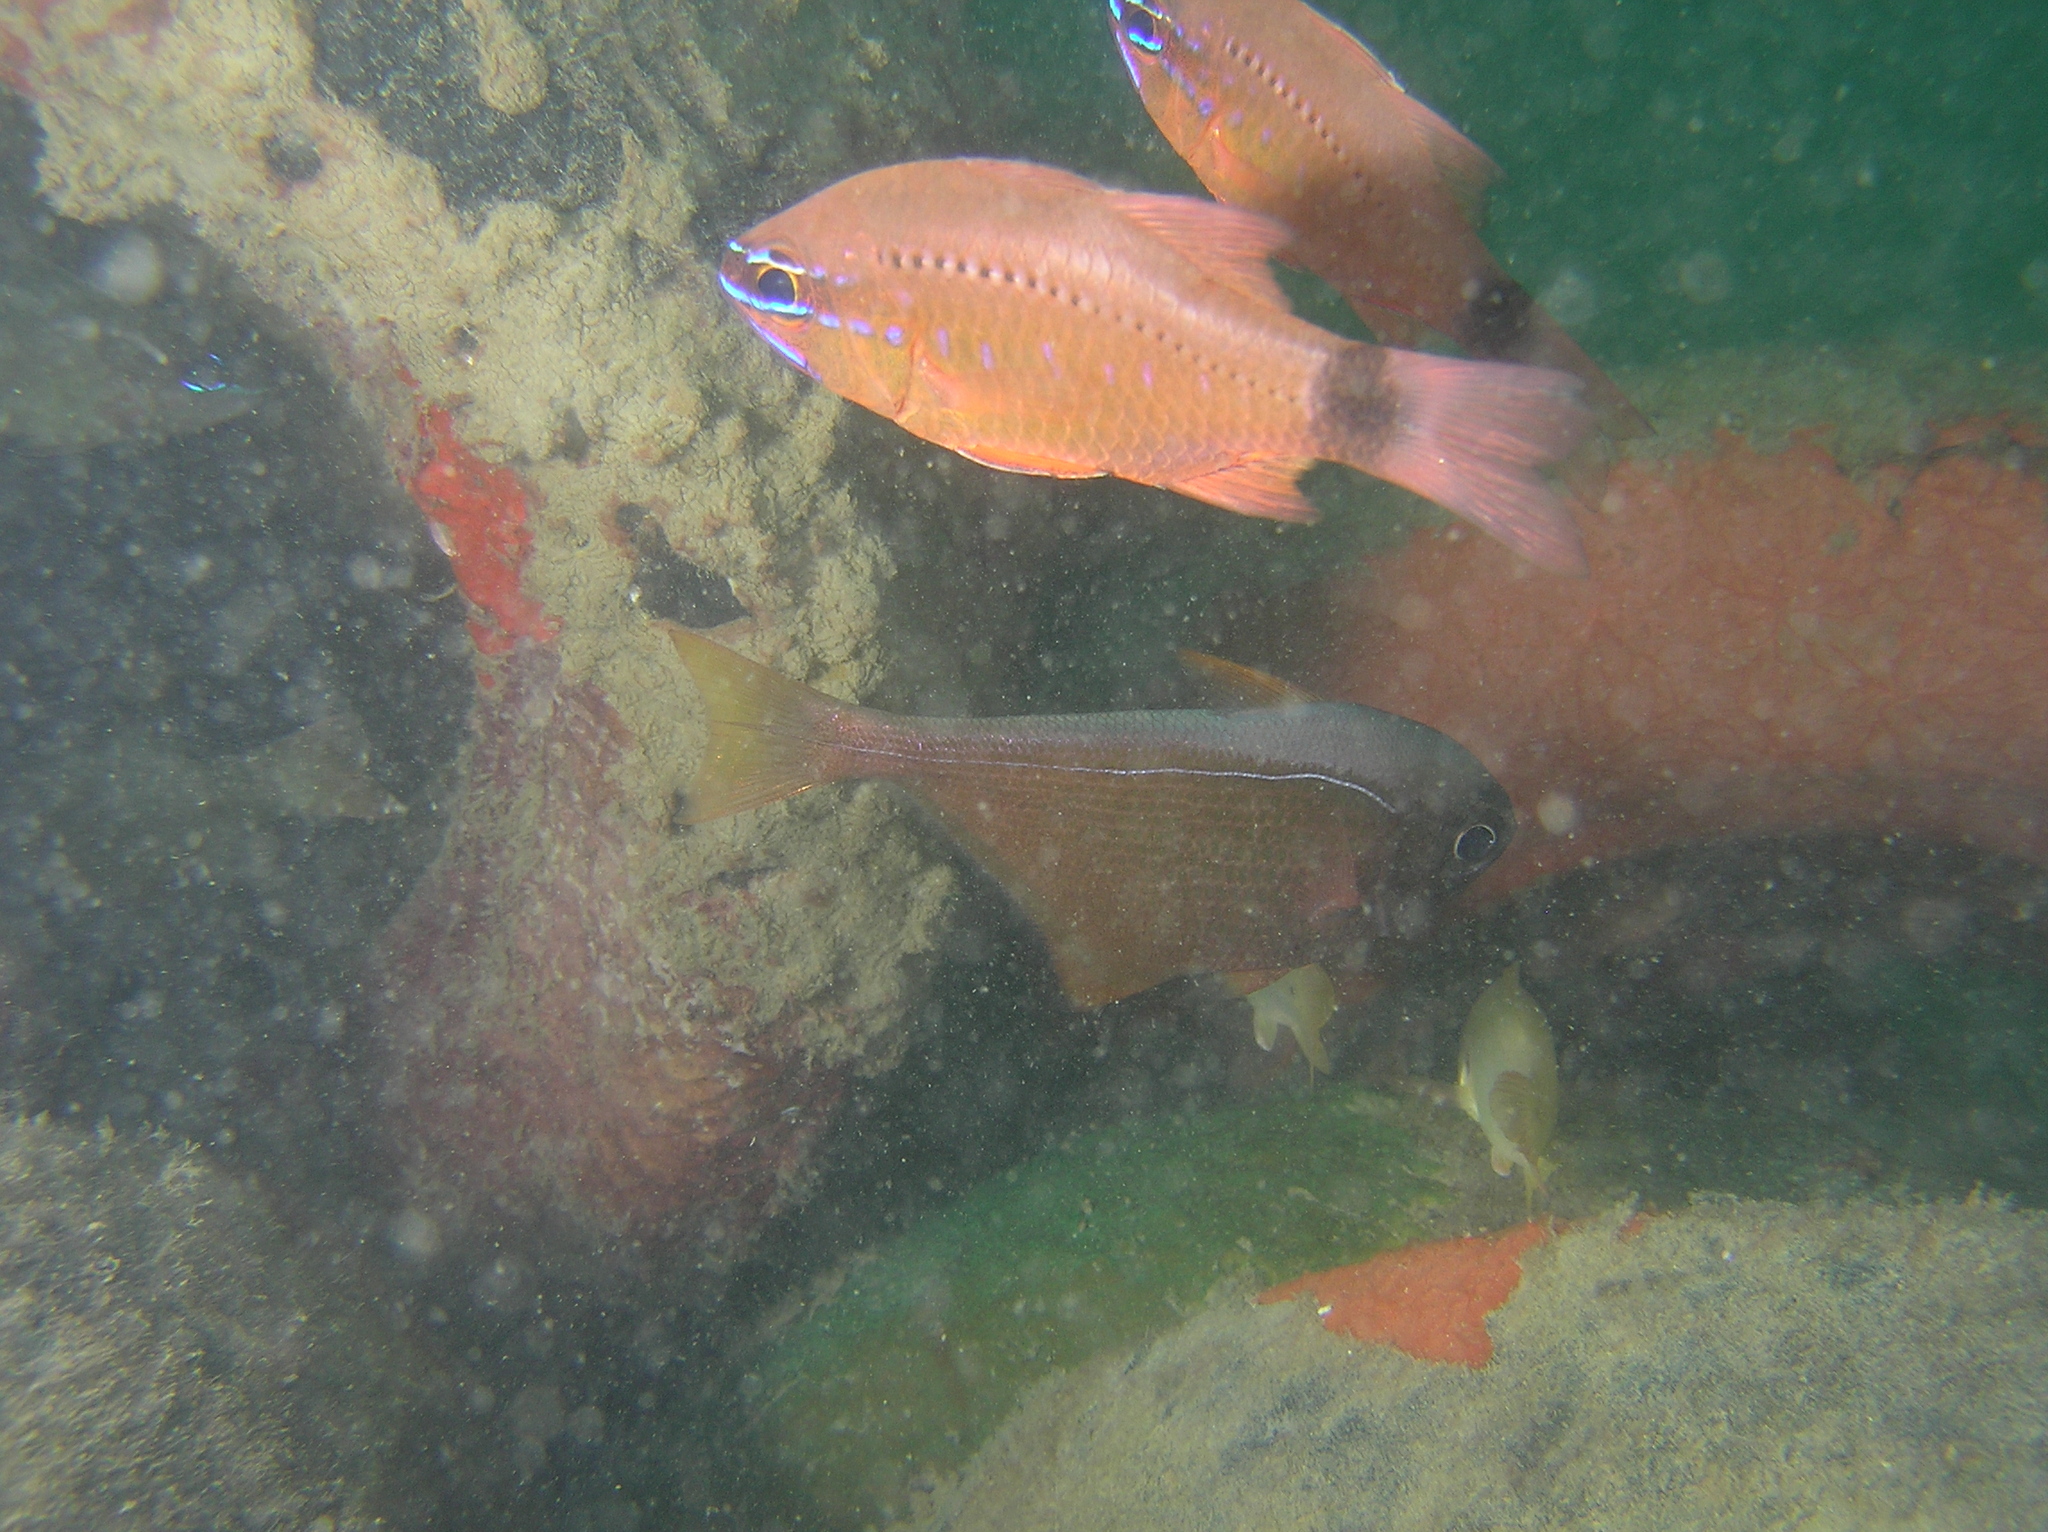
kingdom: Animalia
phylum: Chordata
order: Perciformes
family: Apogonidae
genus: Ostorhinchus
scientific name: Ostorhinchus fleurieu
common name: Bullseye cardinalfish
